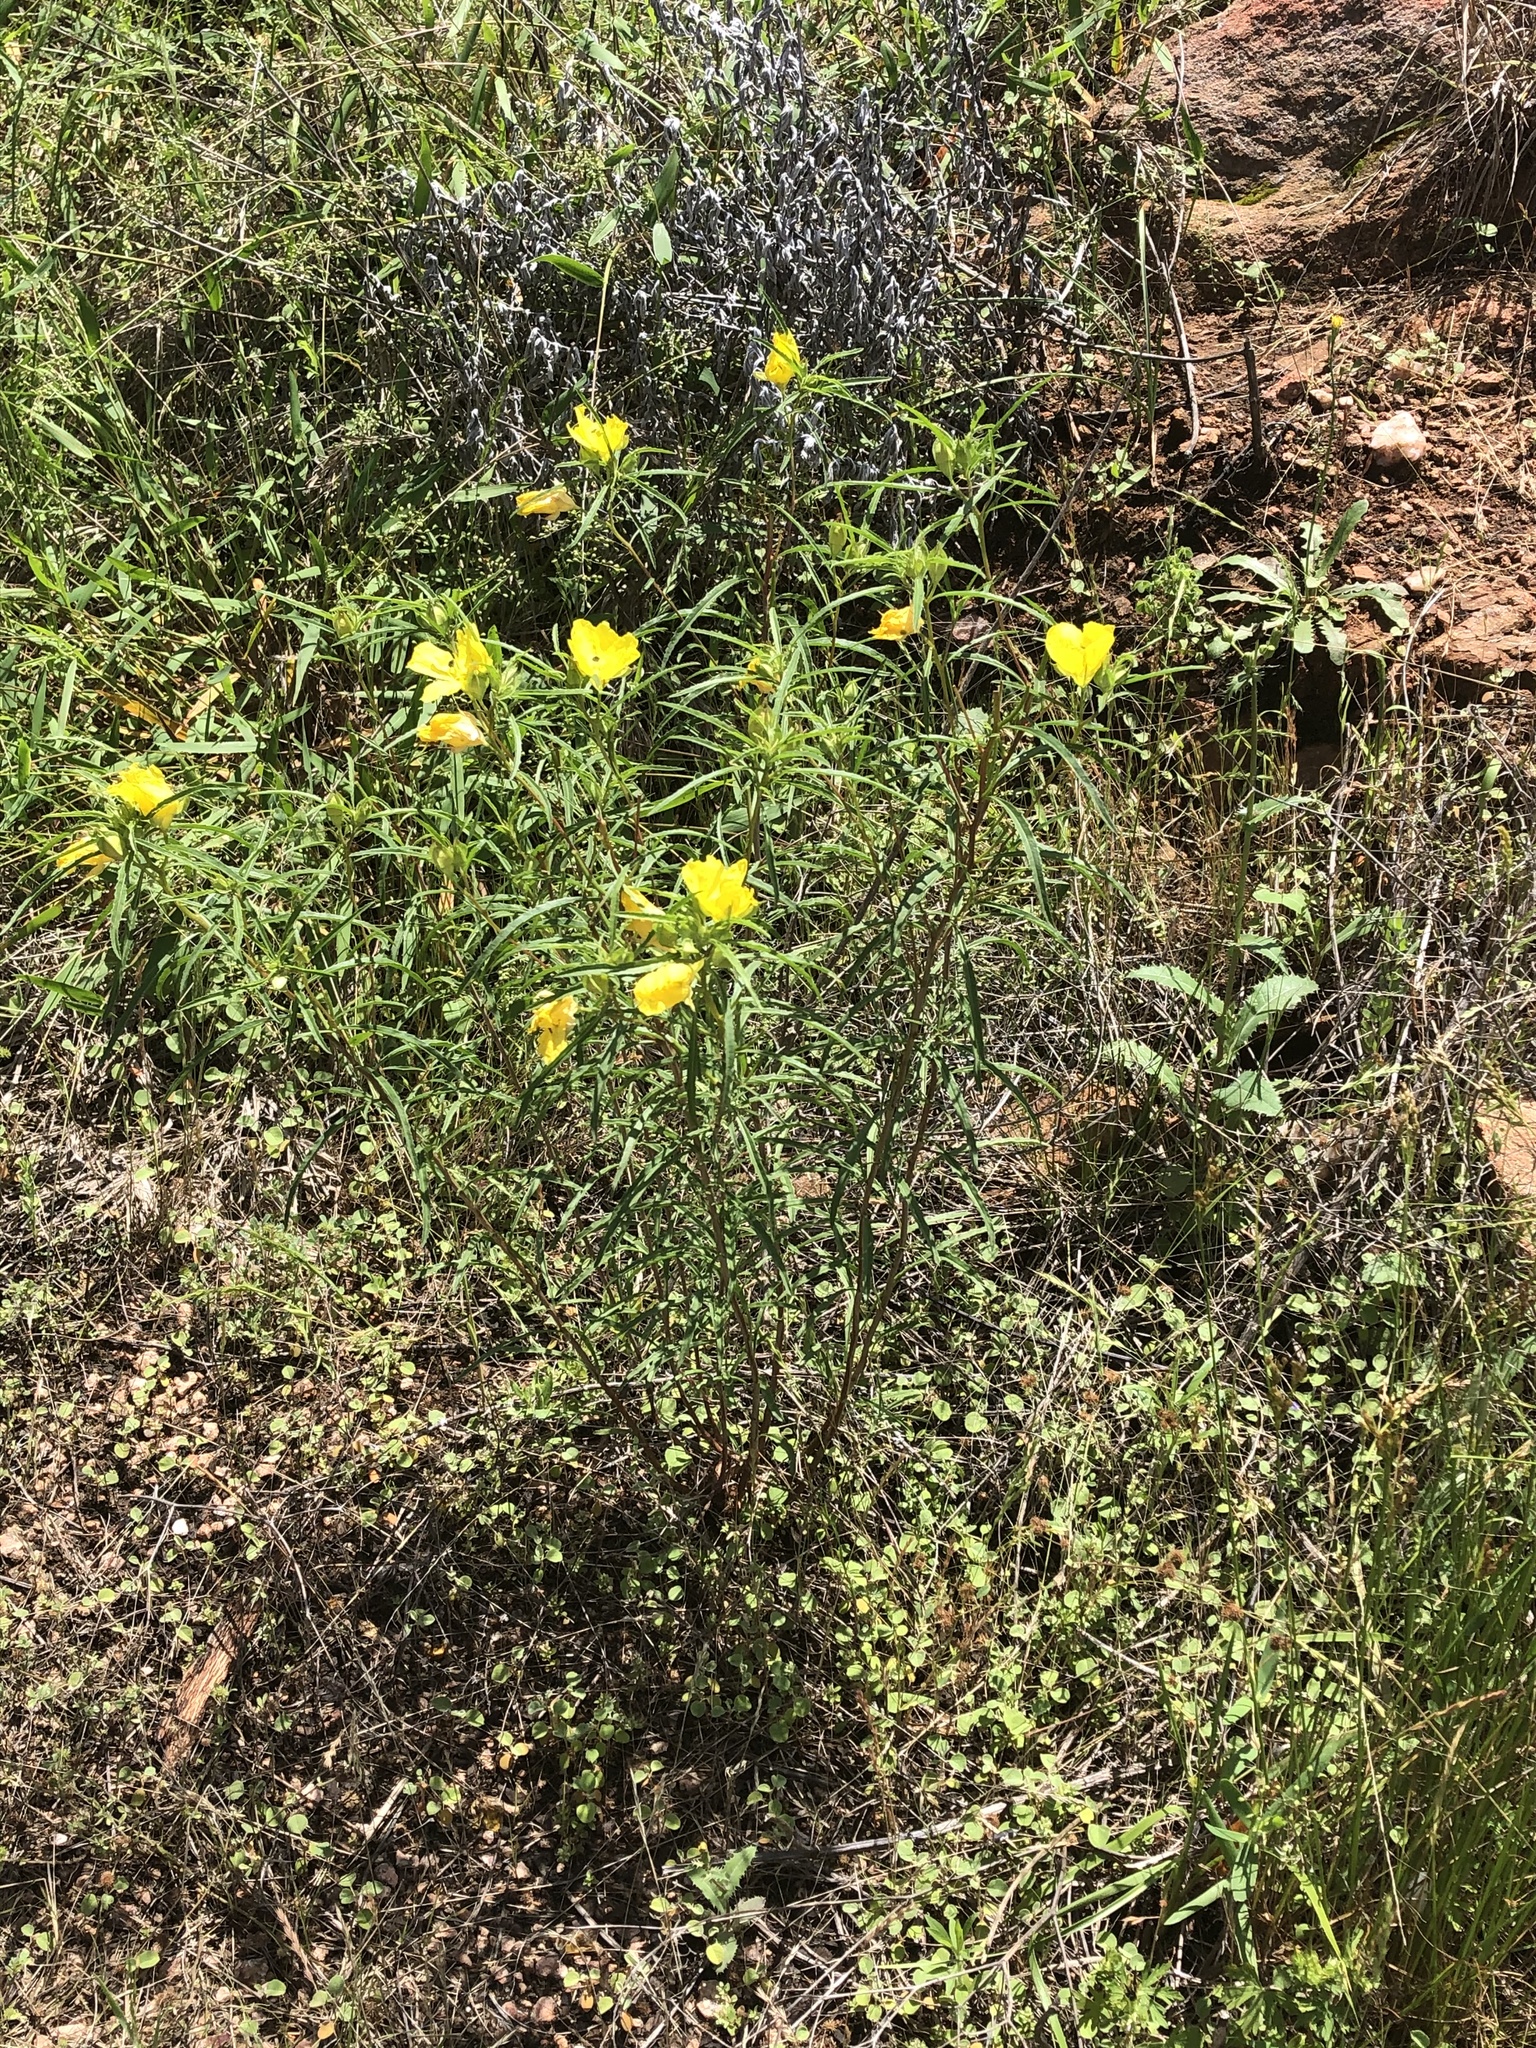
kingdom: Plantae
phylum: Tracheophyta
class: Magnoliopsida
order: Myrtales
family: Onagraceae
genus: Oenothera
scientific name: Oenothera
